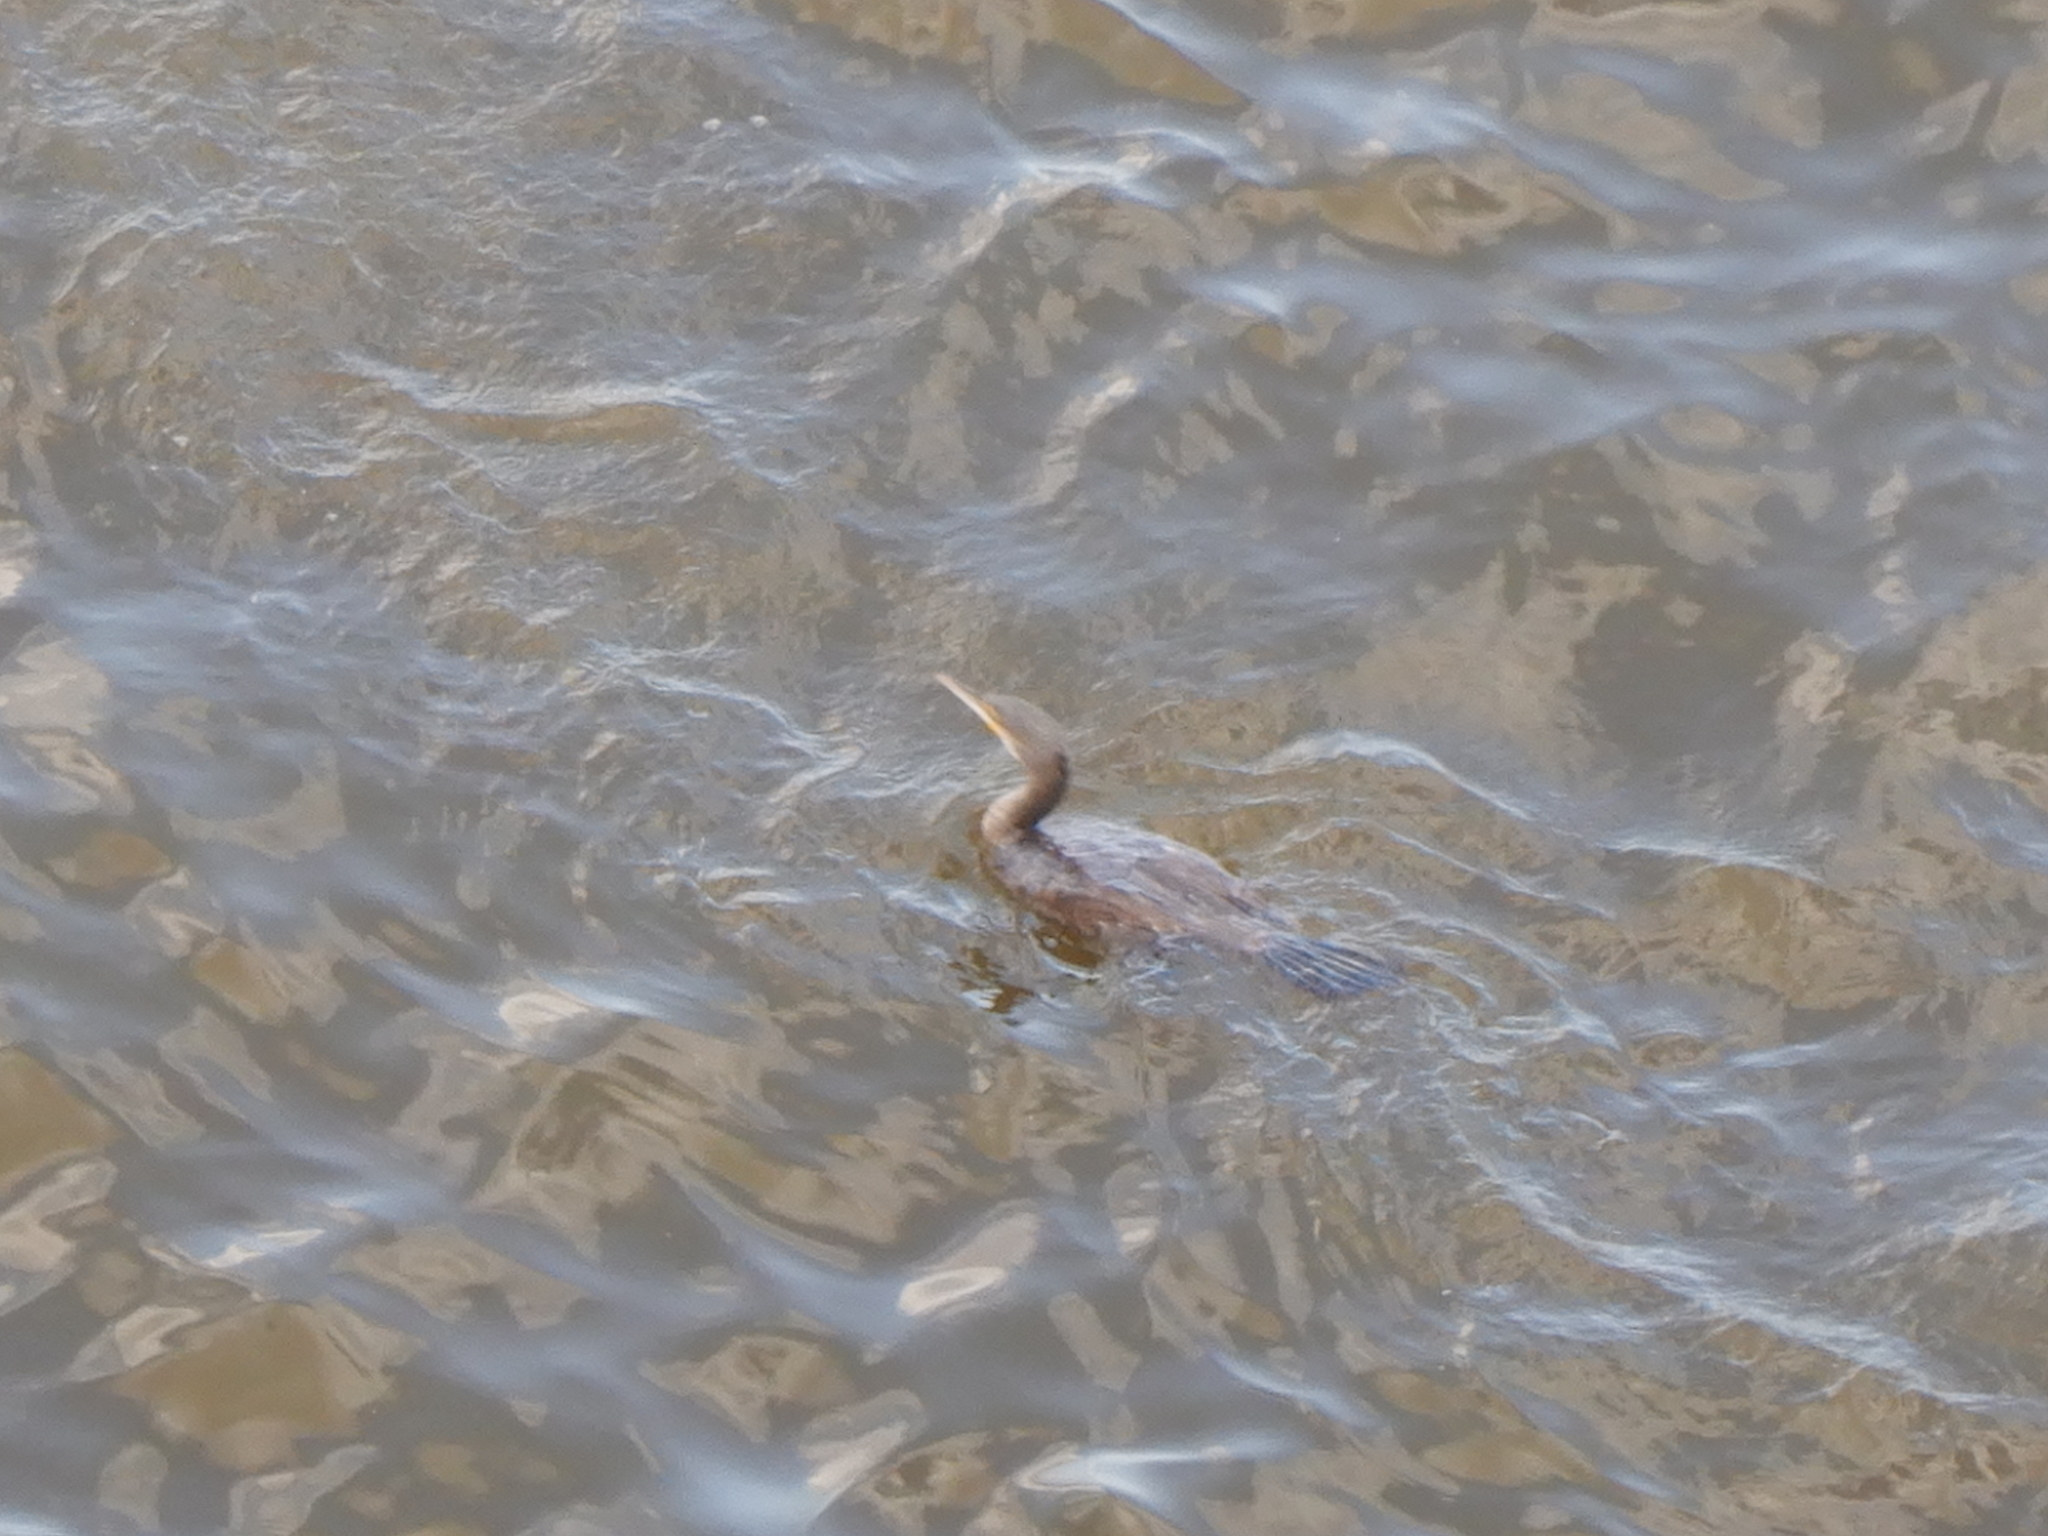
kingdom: Animalia
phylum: Chordata
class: Aves
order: Suliformes
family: Phalacrocoracidae
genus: Phalacrocorax
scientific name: Phalacrocorax carbo
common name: Great cormorant
